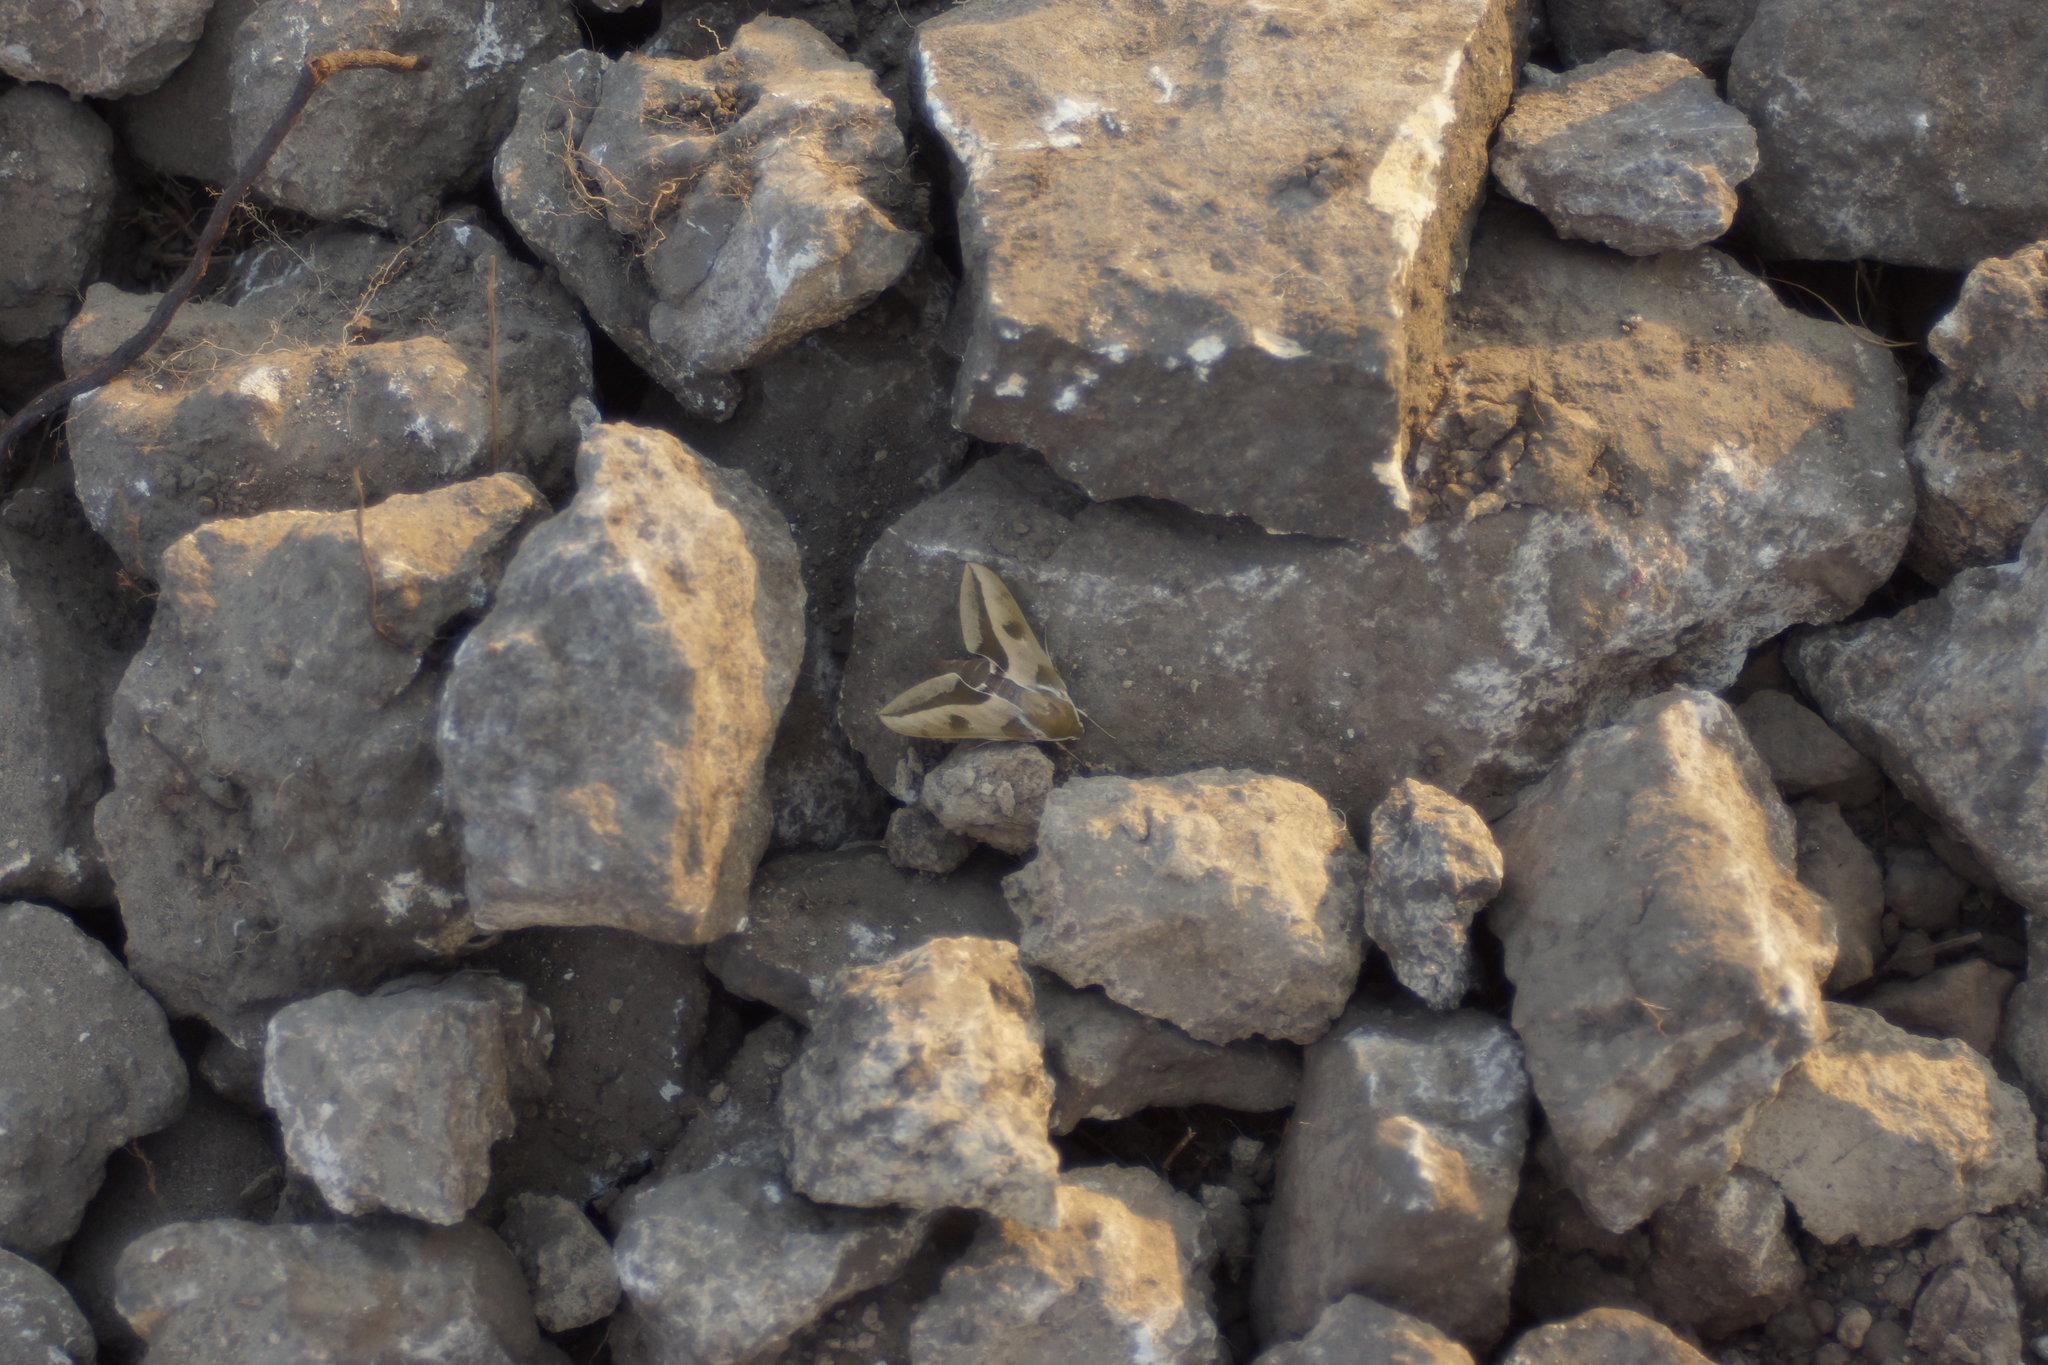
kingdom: Animalia
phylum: Arthropoda
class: Insecta
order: Lepidoptera
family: Sphingidae
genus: Hyles
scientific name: Hyles euphorbiae
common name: Spurge hawk-moth
